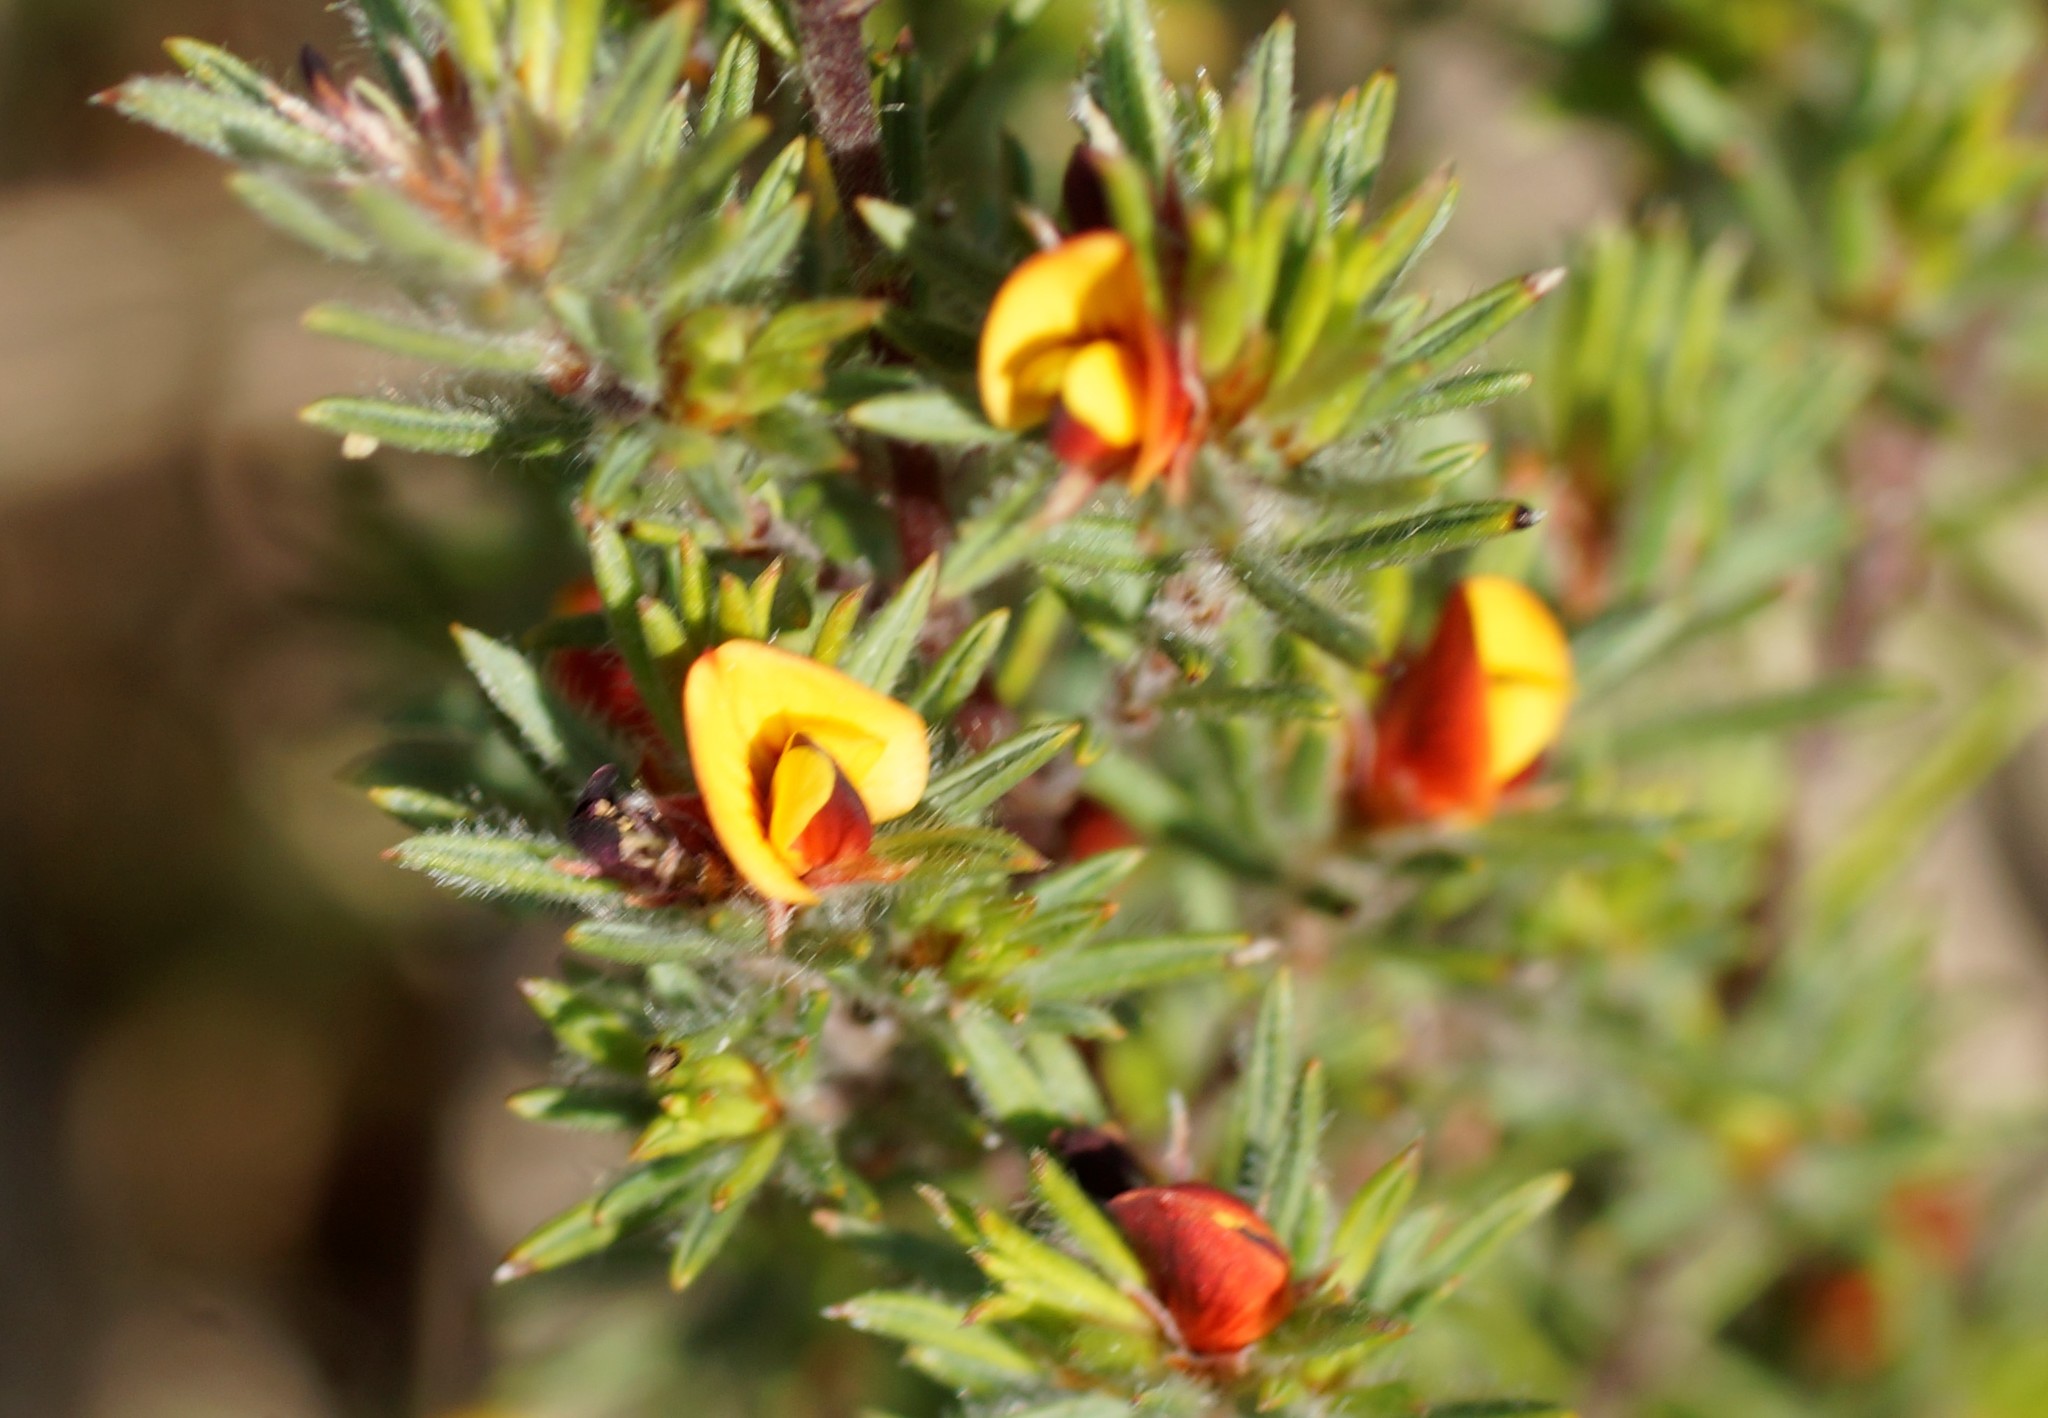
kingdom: Plantae
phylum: Tracheophyta
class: Magnoliopsida
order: Fabales
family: Fabaceae
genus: Pultenaea
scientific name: Pultenaea tenuifolia
